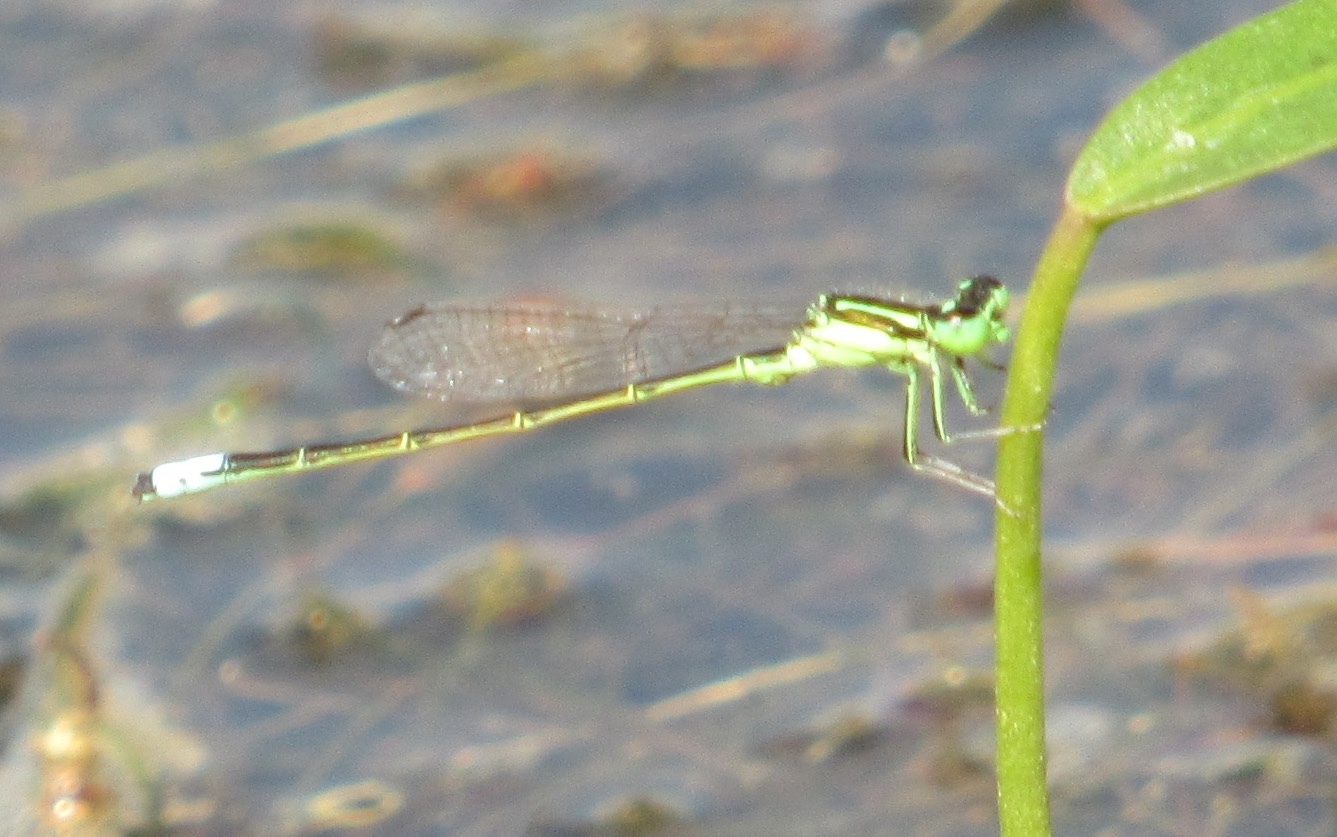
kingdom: Animalia
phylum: Arthropoda
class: Insecta
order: Odonata
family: Coenagrionidae
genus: Ischnura
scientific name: Ischnura verticalis
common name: Eastern forktail
